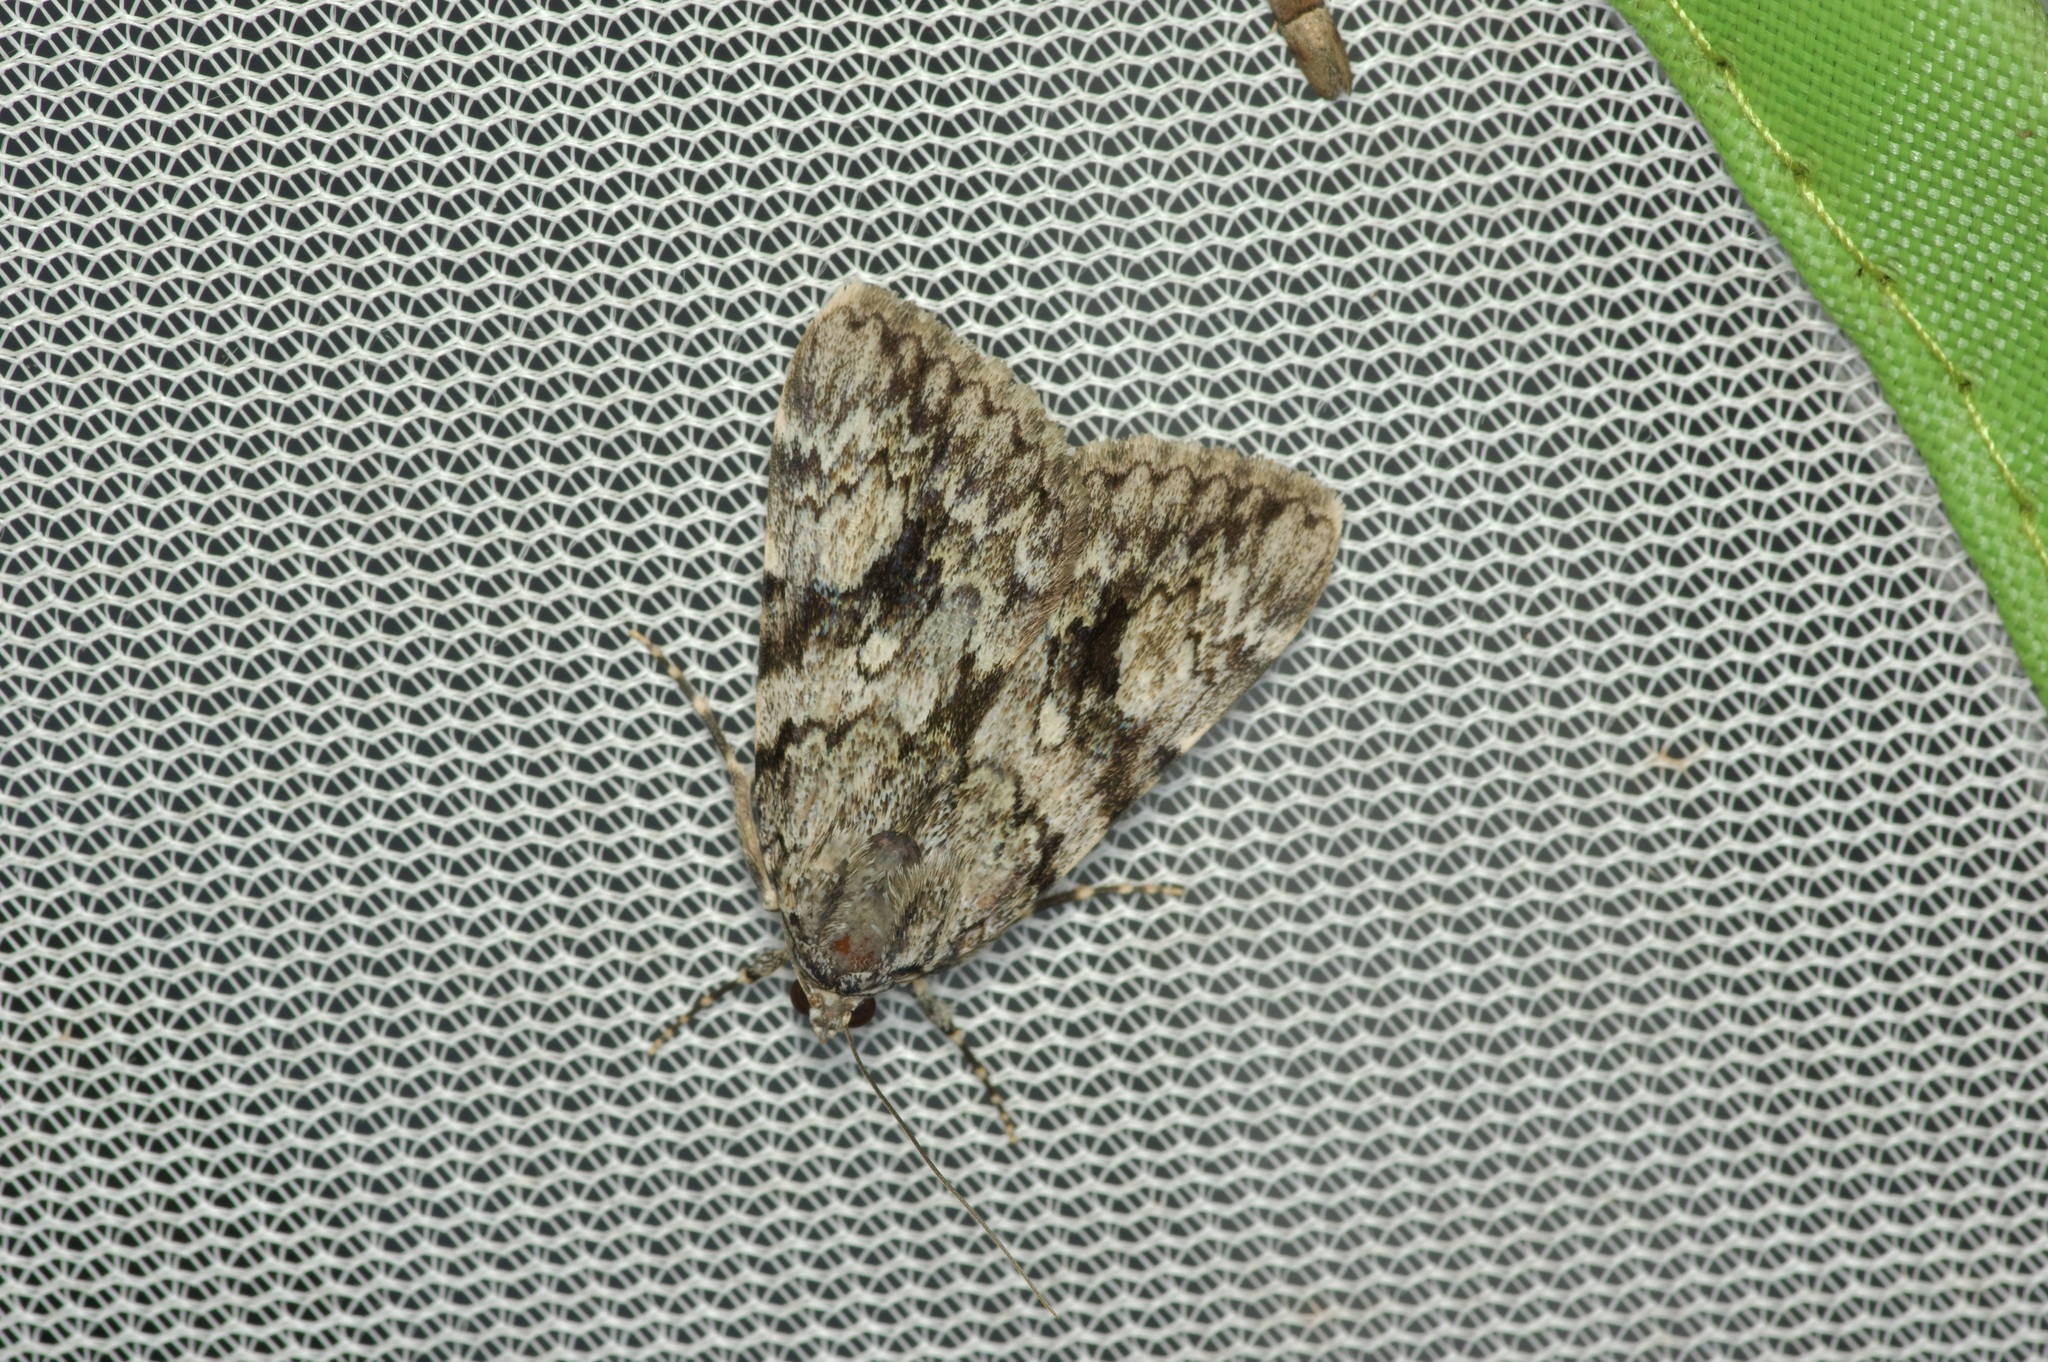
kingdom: Animalia
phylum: Arthropoda
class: Insecta
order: Lepidoptera
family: Erebidae
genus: Catocala
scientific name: Catocala amica
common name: Girlfriend underwing
